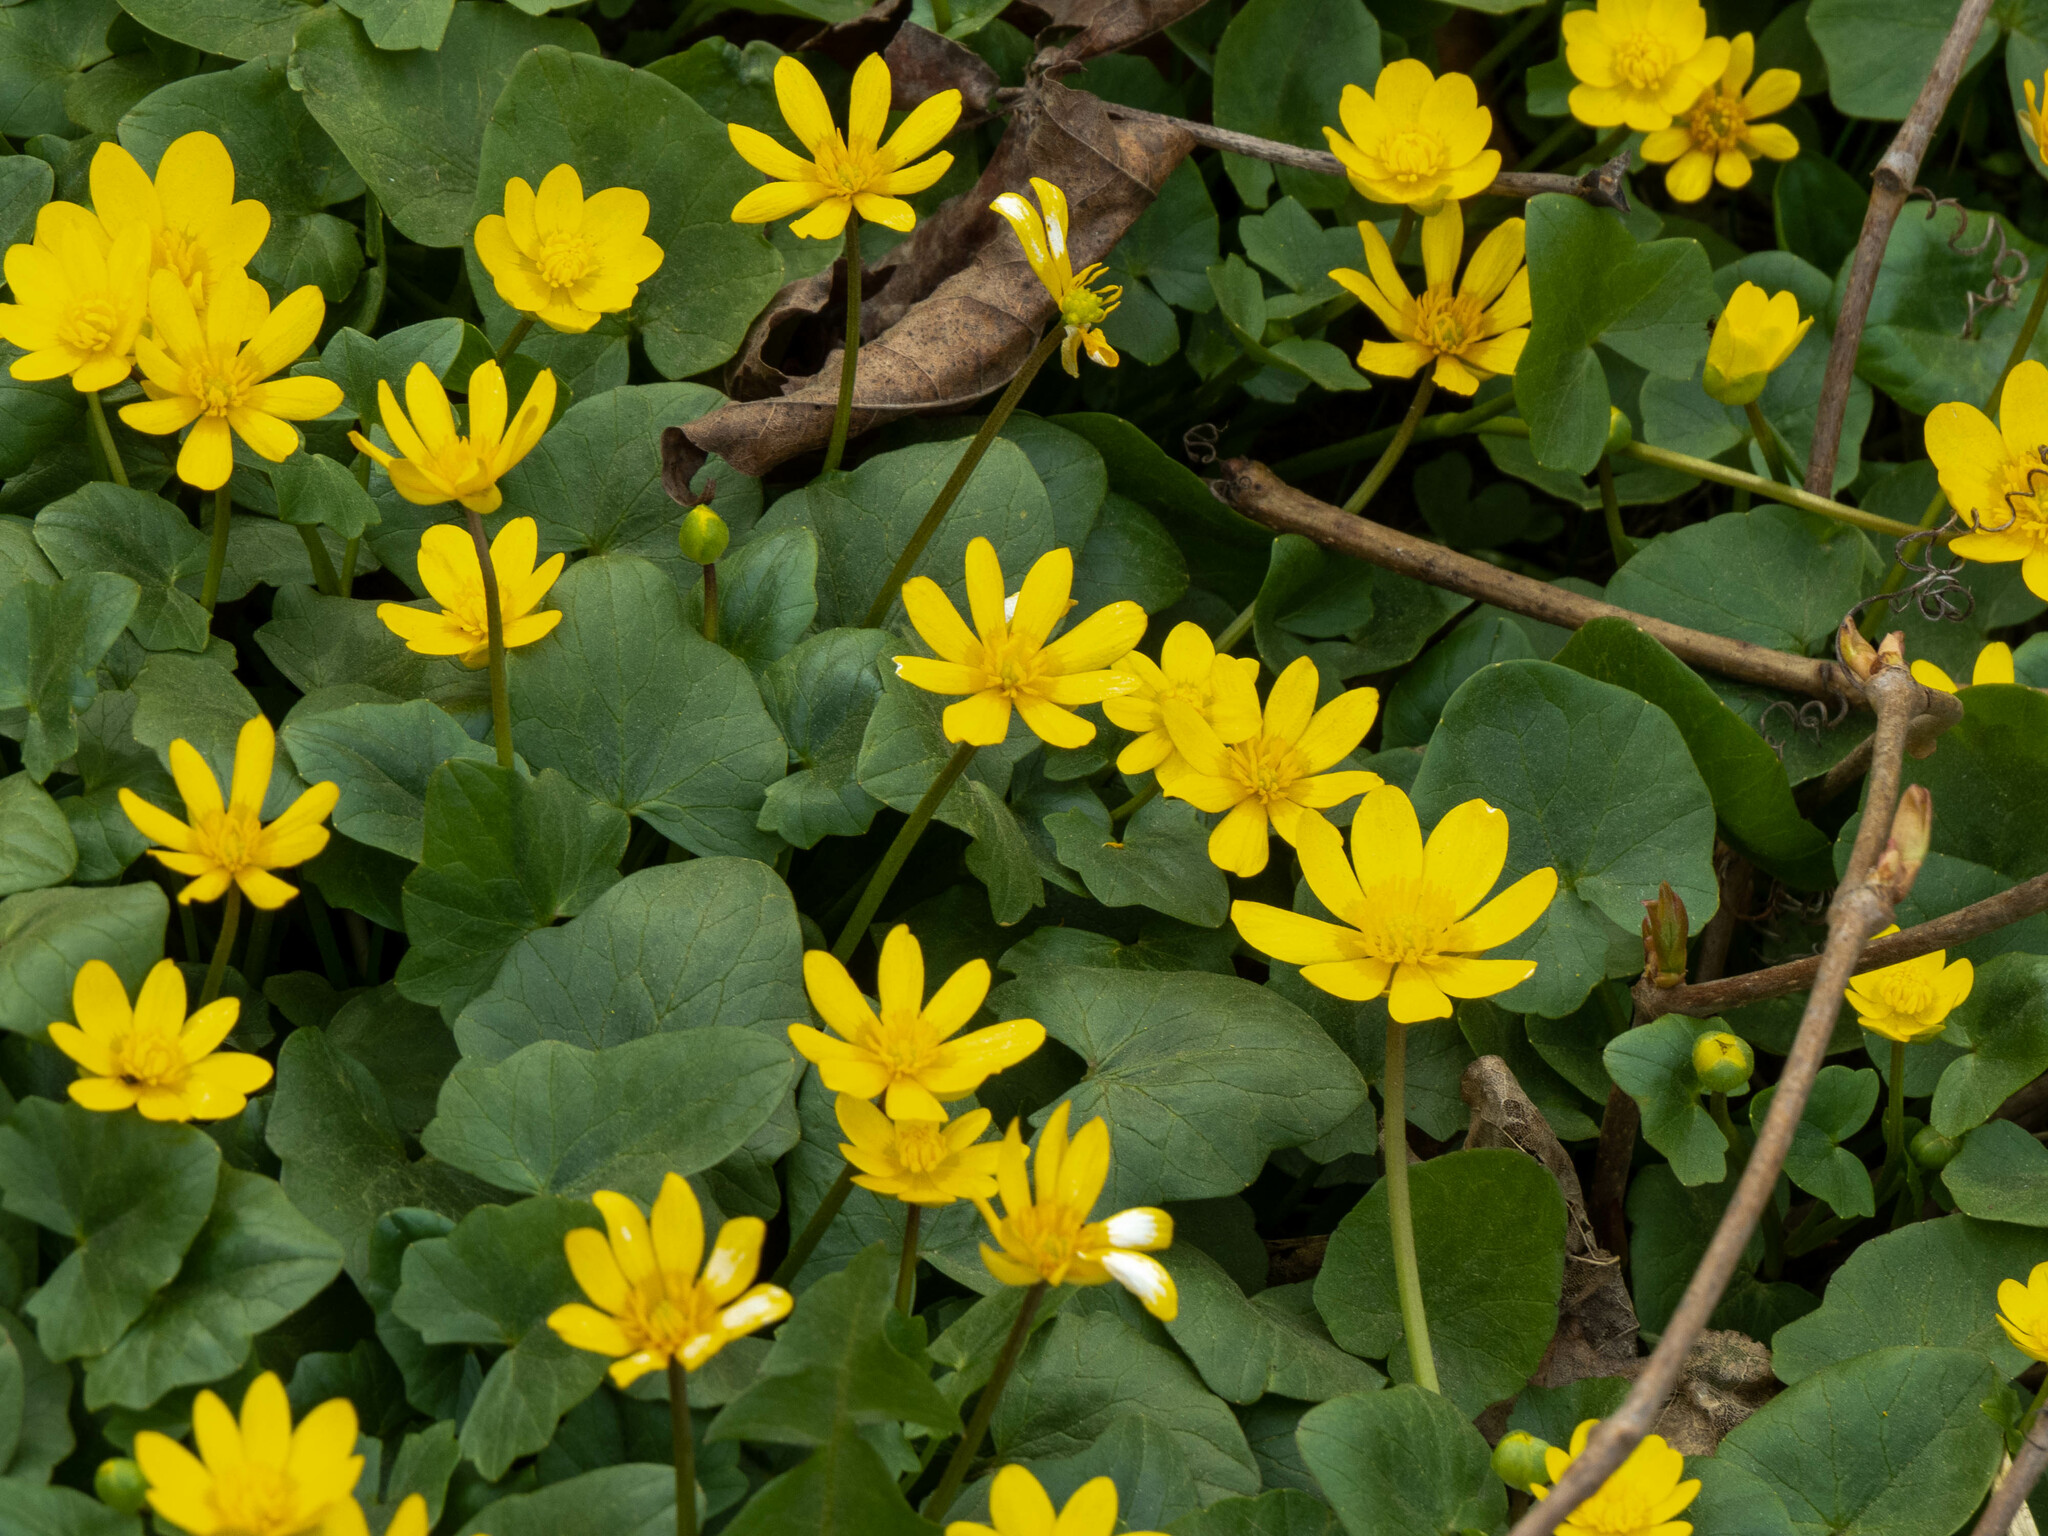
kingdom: Plantae
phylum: Tracheophyta
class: Magnoliopsida
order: Ranunculales
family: Ranunculaceae
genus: Ficaria
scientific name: Ficaria verna
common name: Lesser celandine
